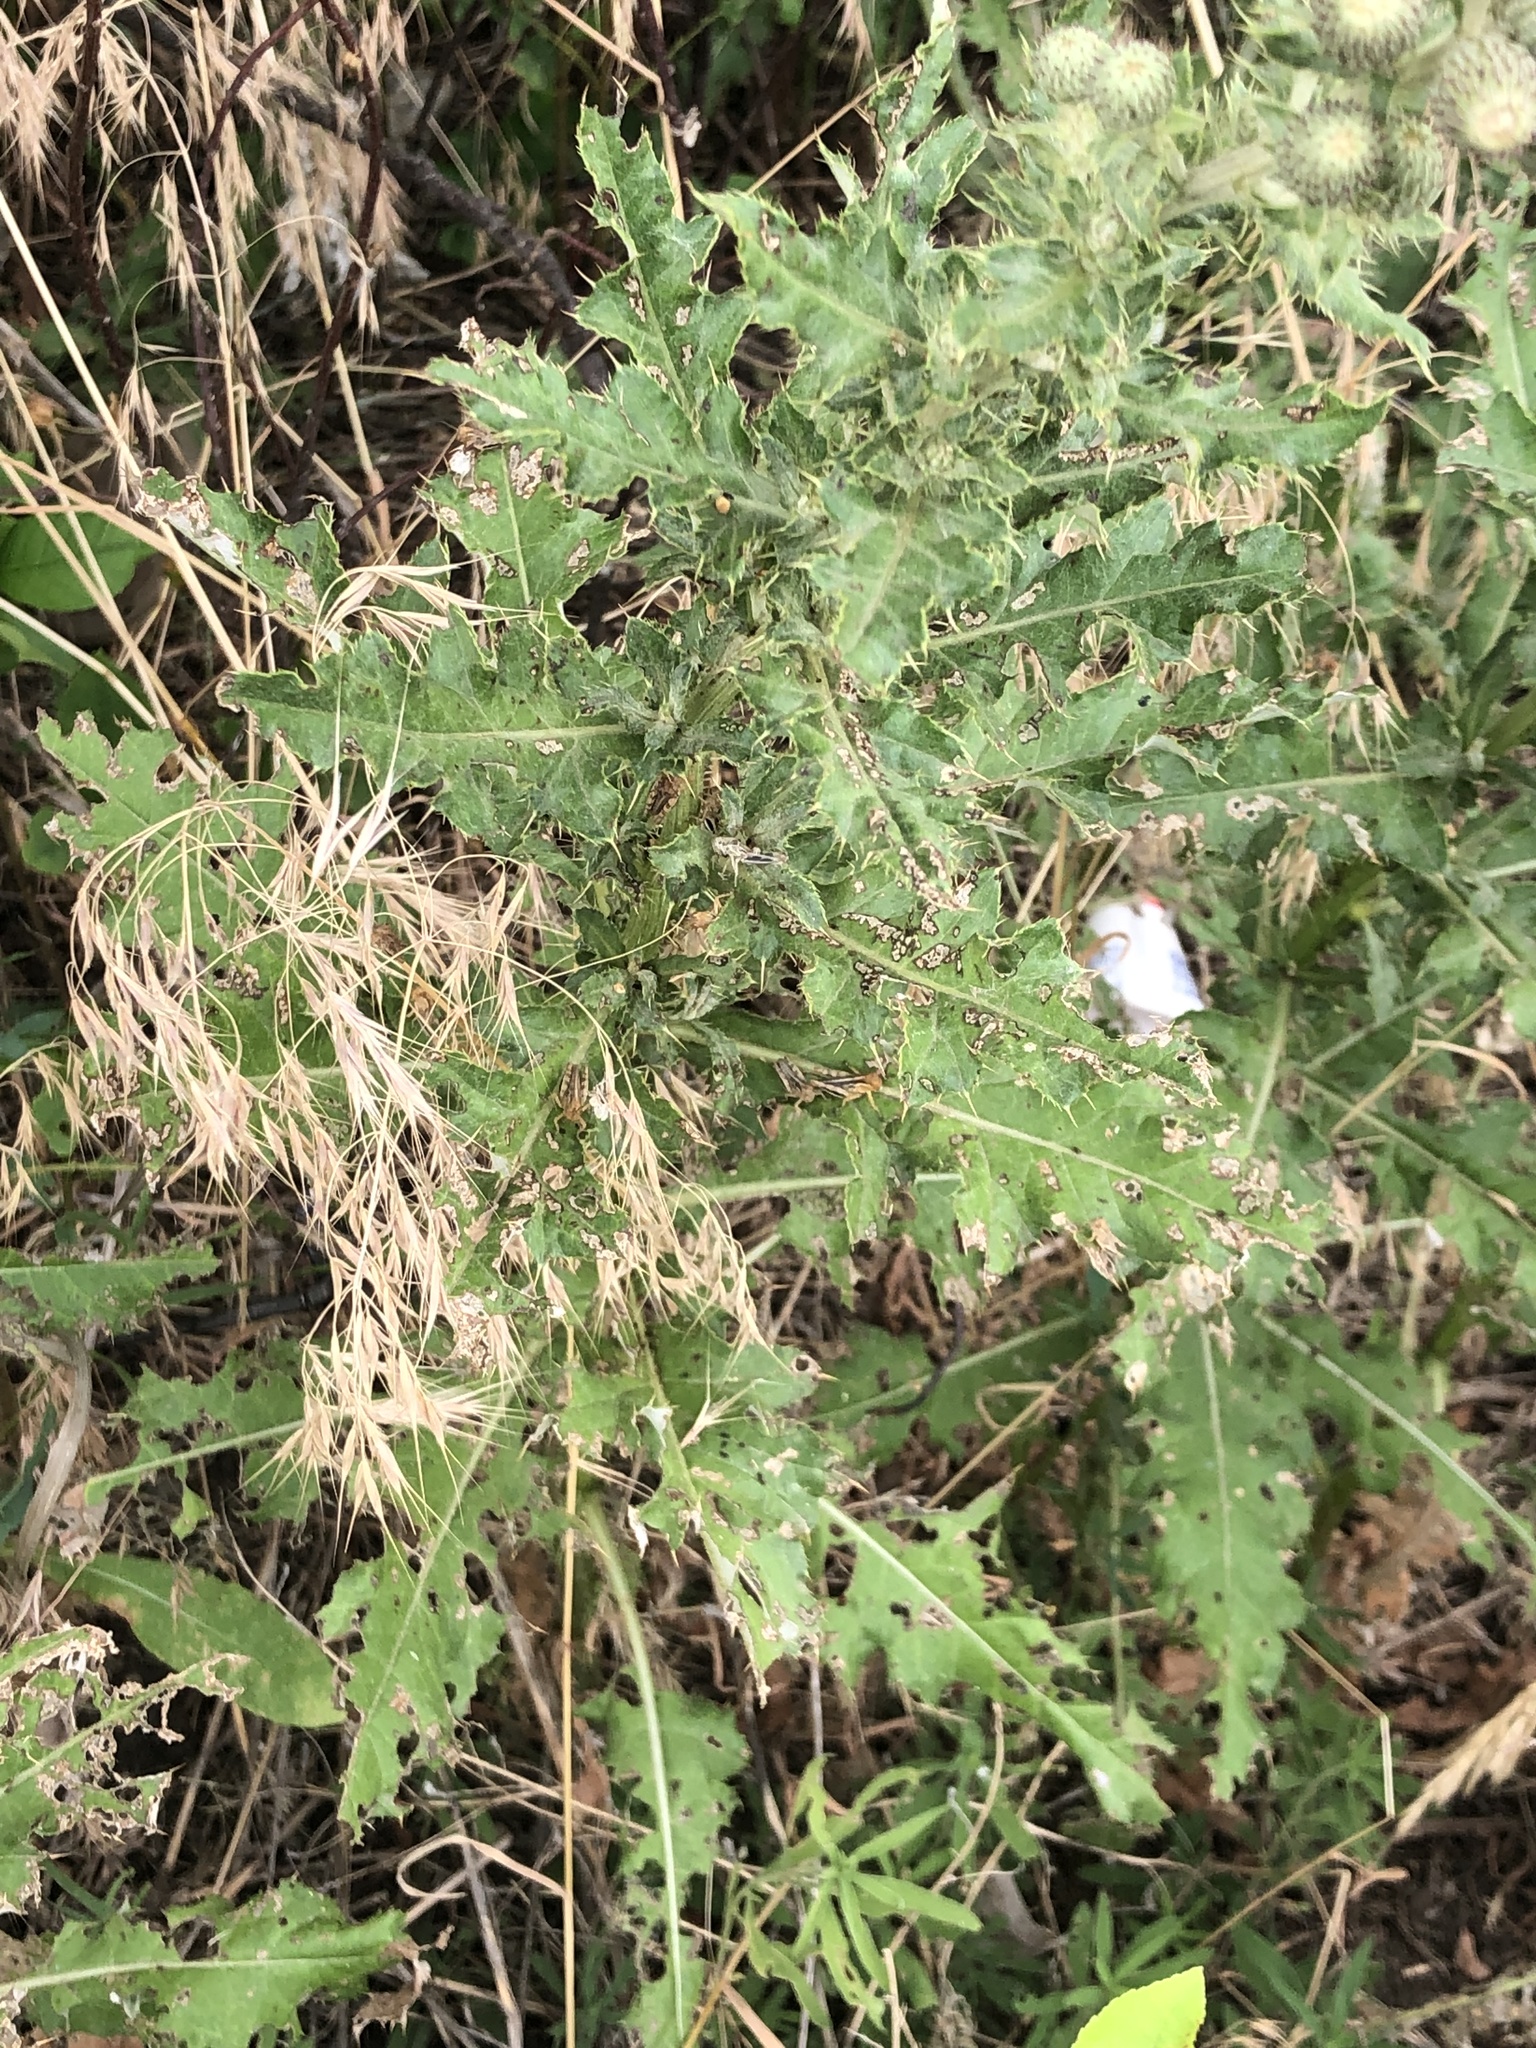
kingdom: Plantae
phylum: Tracheophyta
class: Magnoliopsida
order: Asterales
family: Asteraceae
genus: Cirsium
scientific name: Cirsium arvense
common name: Creeping thistle
